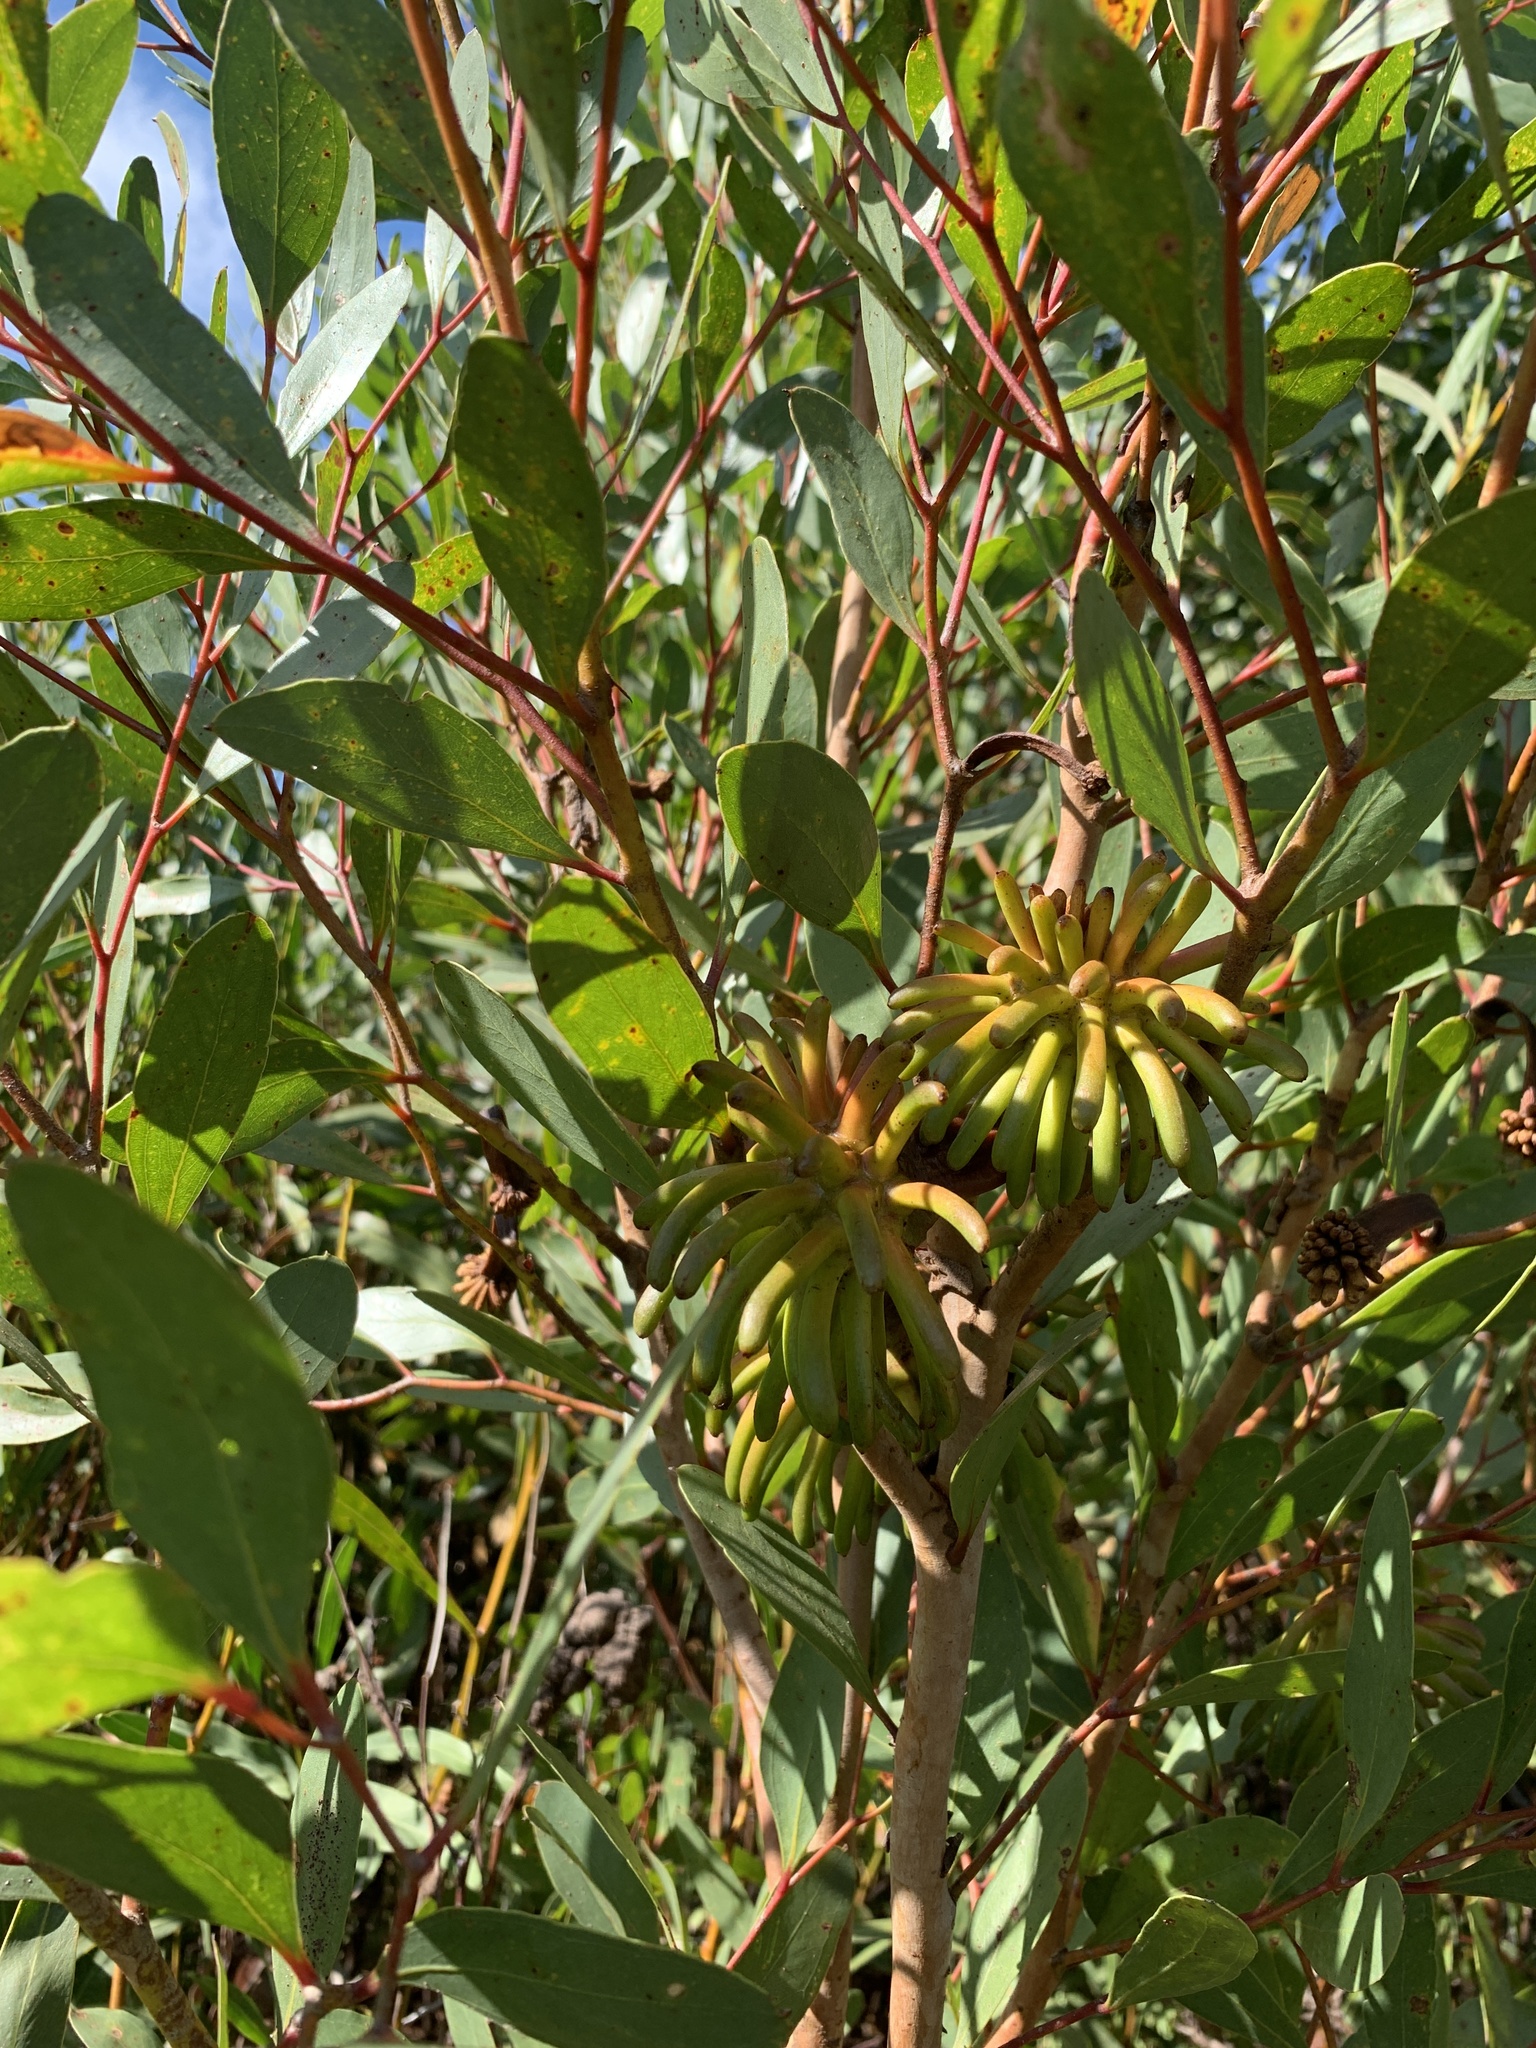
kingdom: Plantae
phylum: Tracheophyta
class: Magnoliopsida
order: Myrtales
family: Myrtaceae
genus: Eucalyptus
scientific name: Eucalyptus conferruminata
